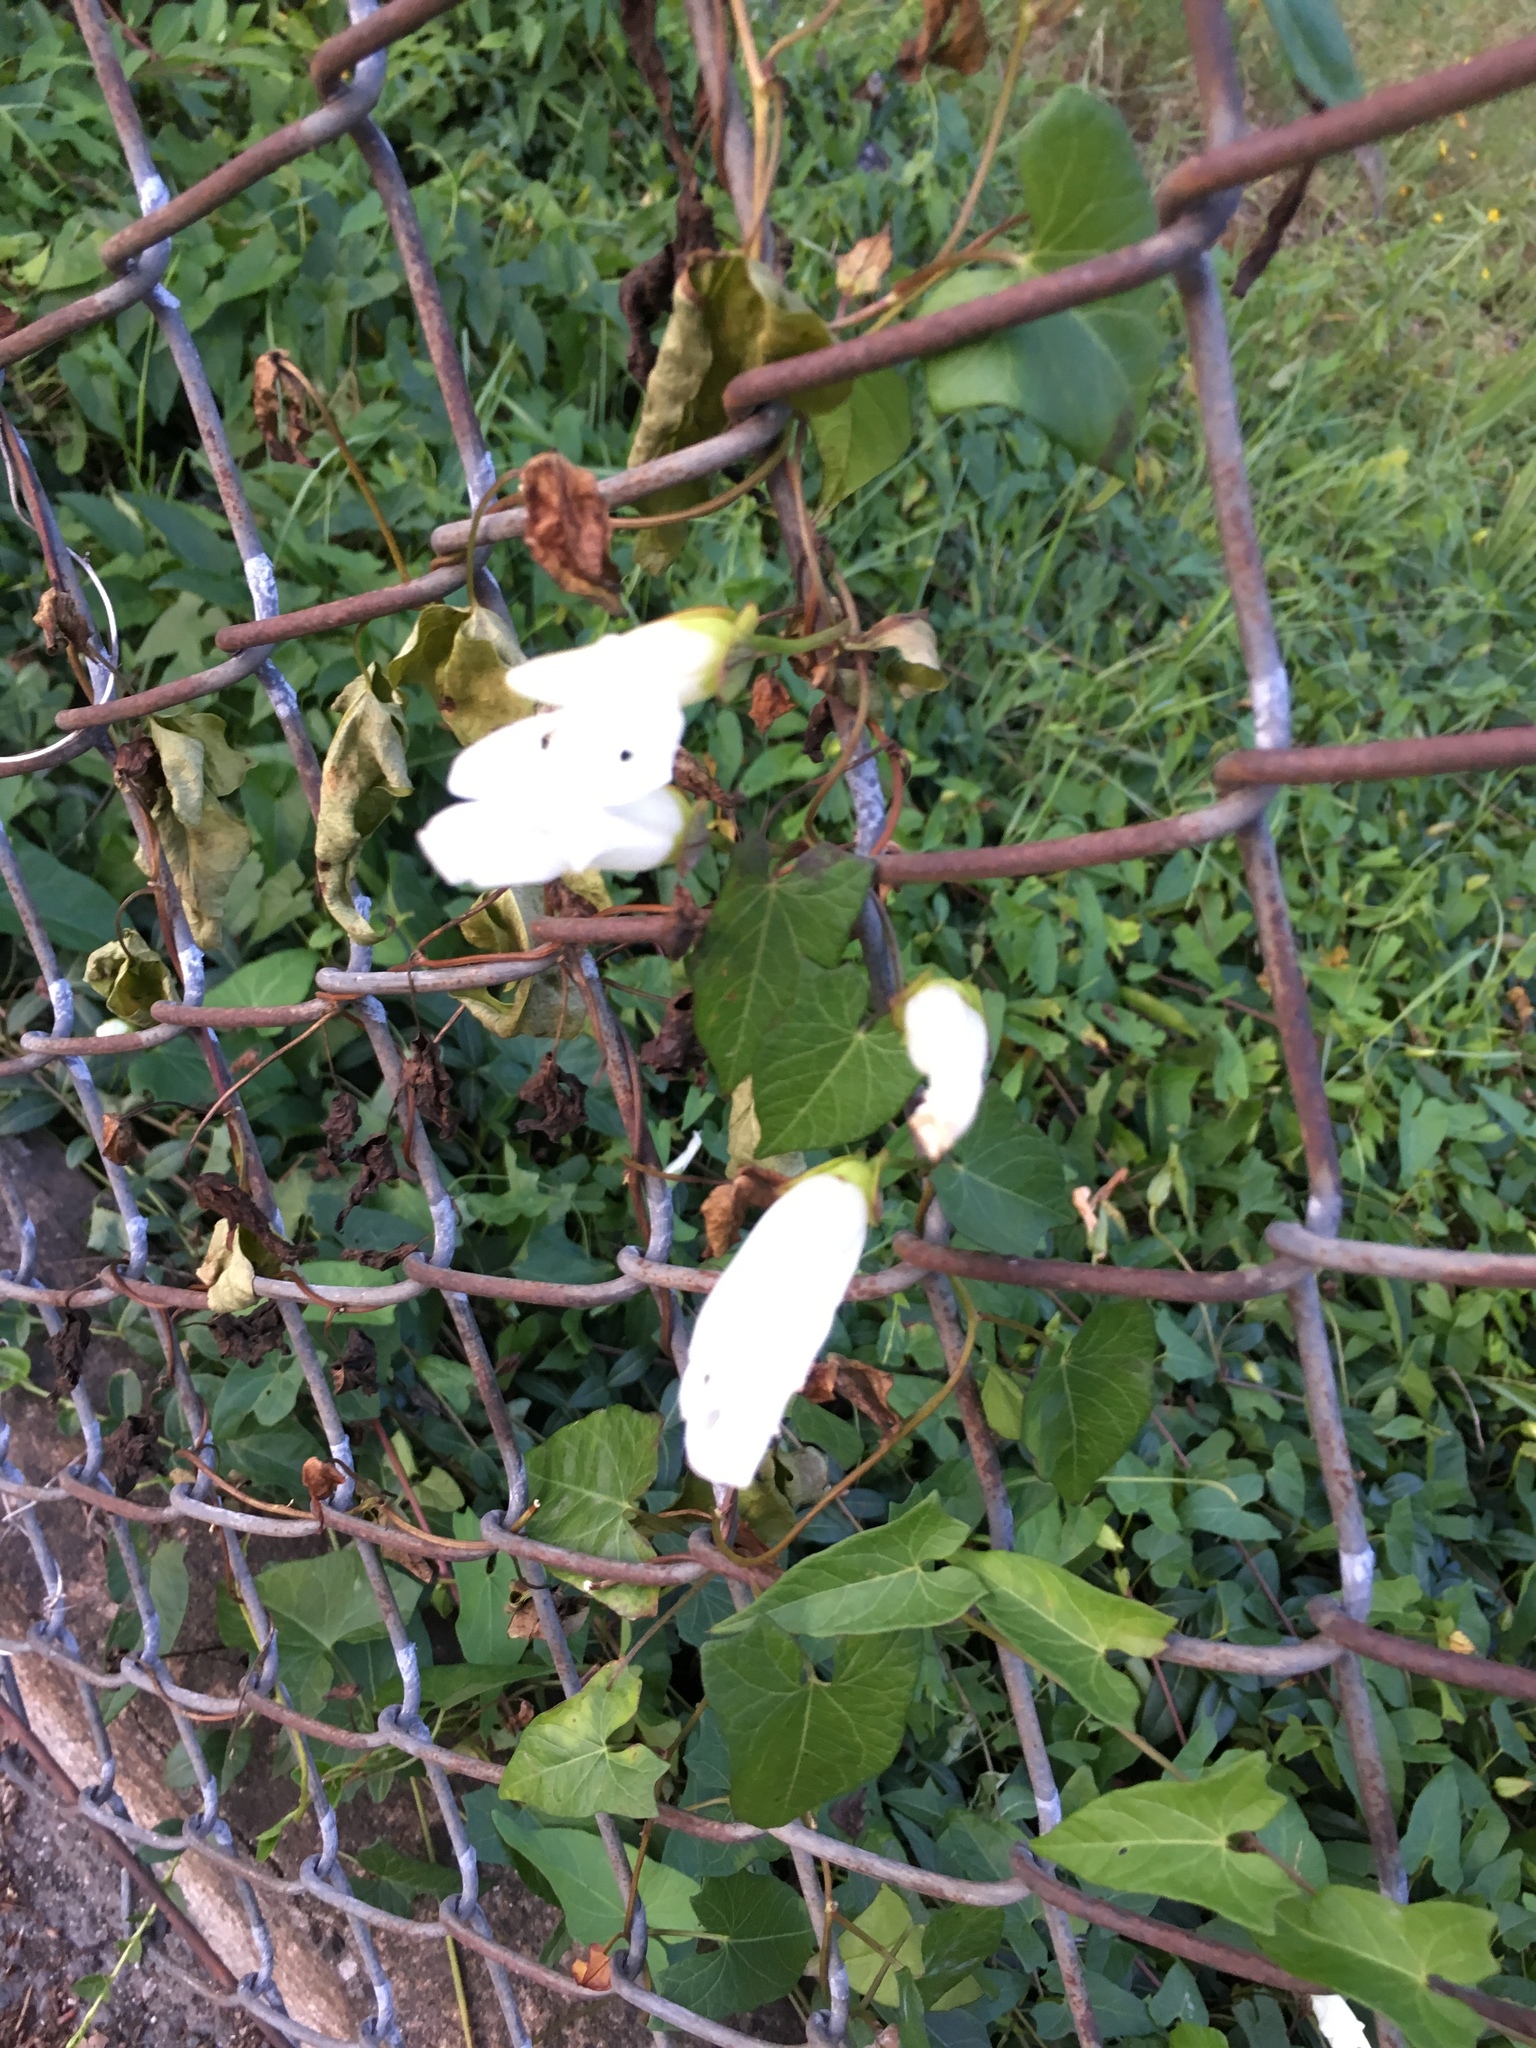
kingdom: Plantae
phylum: Tracheophyta
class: Magnoliopsida
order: Solanales
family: Convolvulaceae
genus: Calystegia
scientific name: Calystegia sepium
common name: Hedge bindweed
